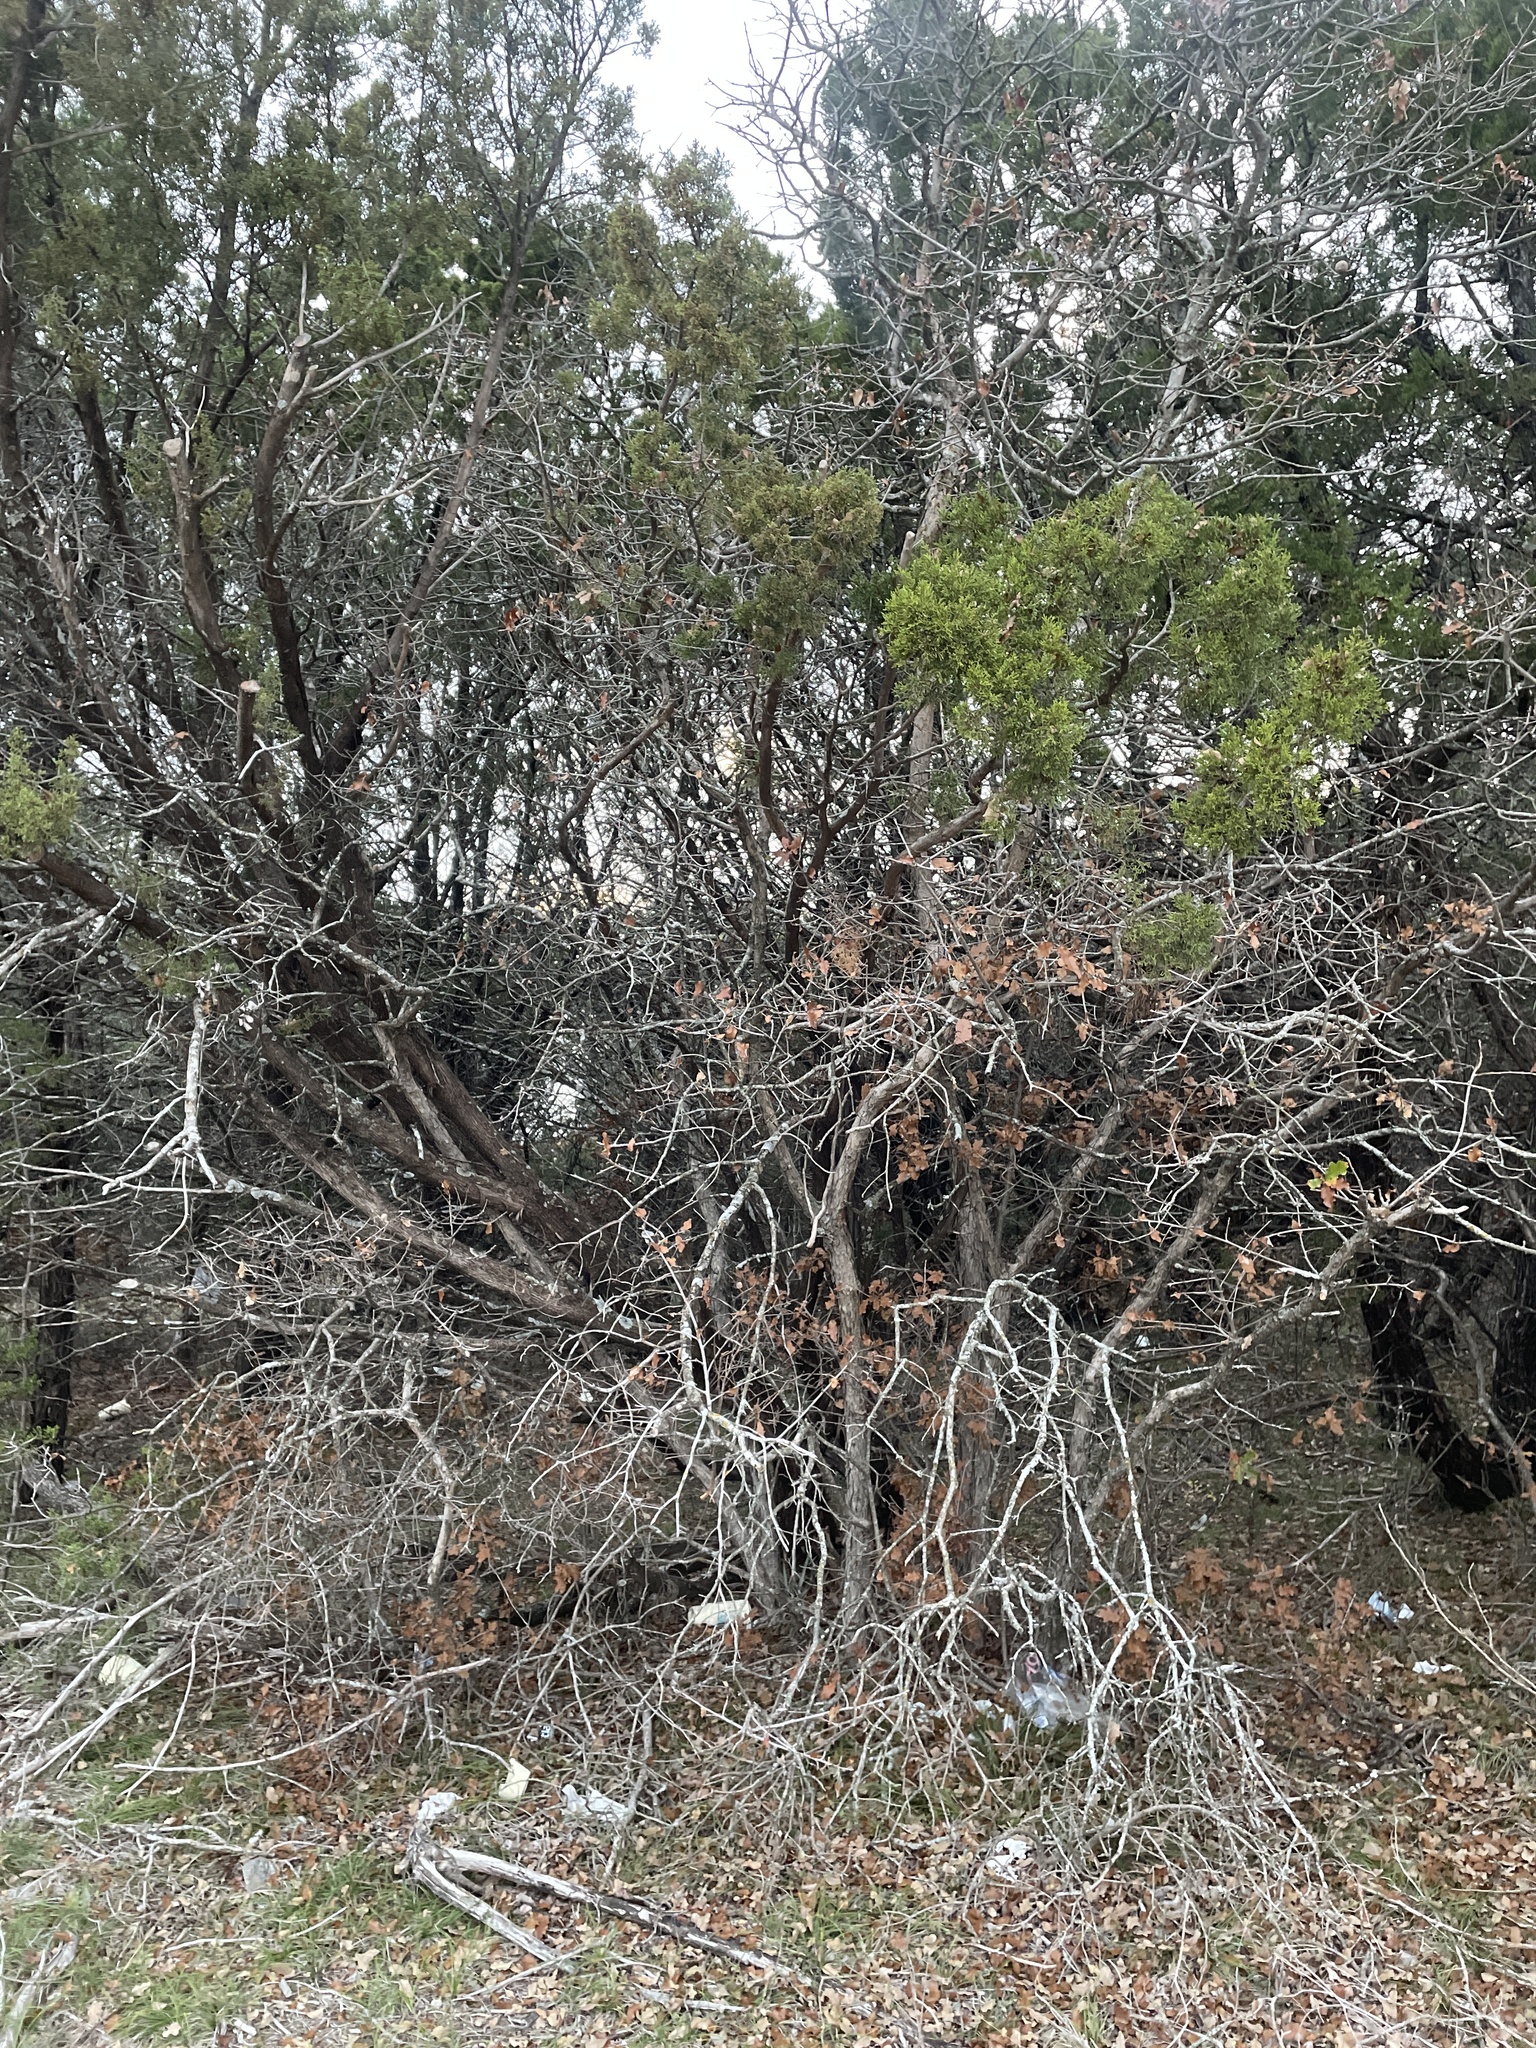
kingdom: Plantae
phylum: Tracheophyta
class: Pinopsida
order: Pinales
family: Cupressaceae
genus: Juniperus
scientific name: Juniperus ashei
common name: Mexican juniper
